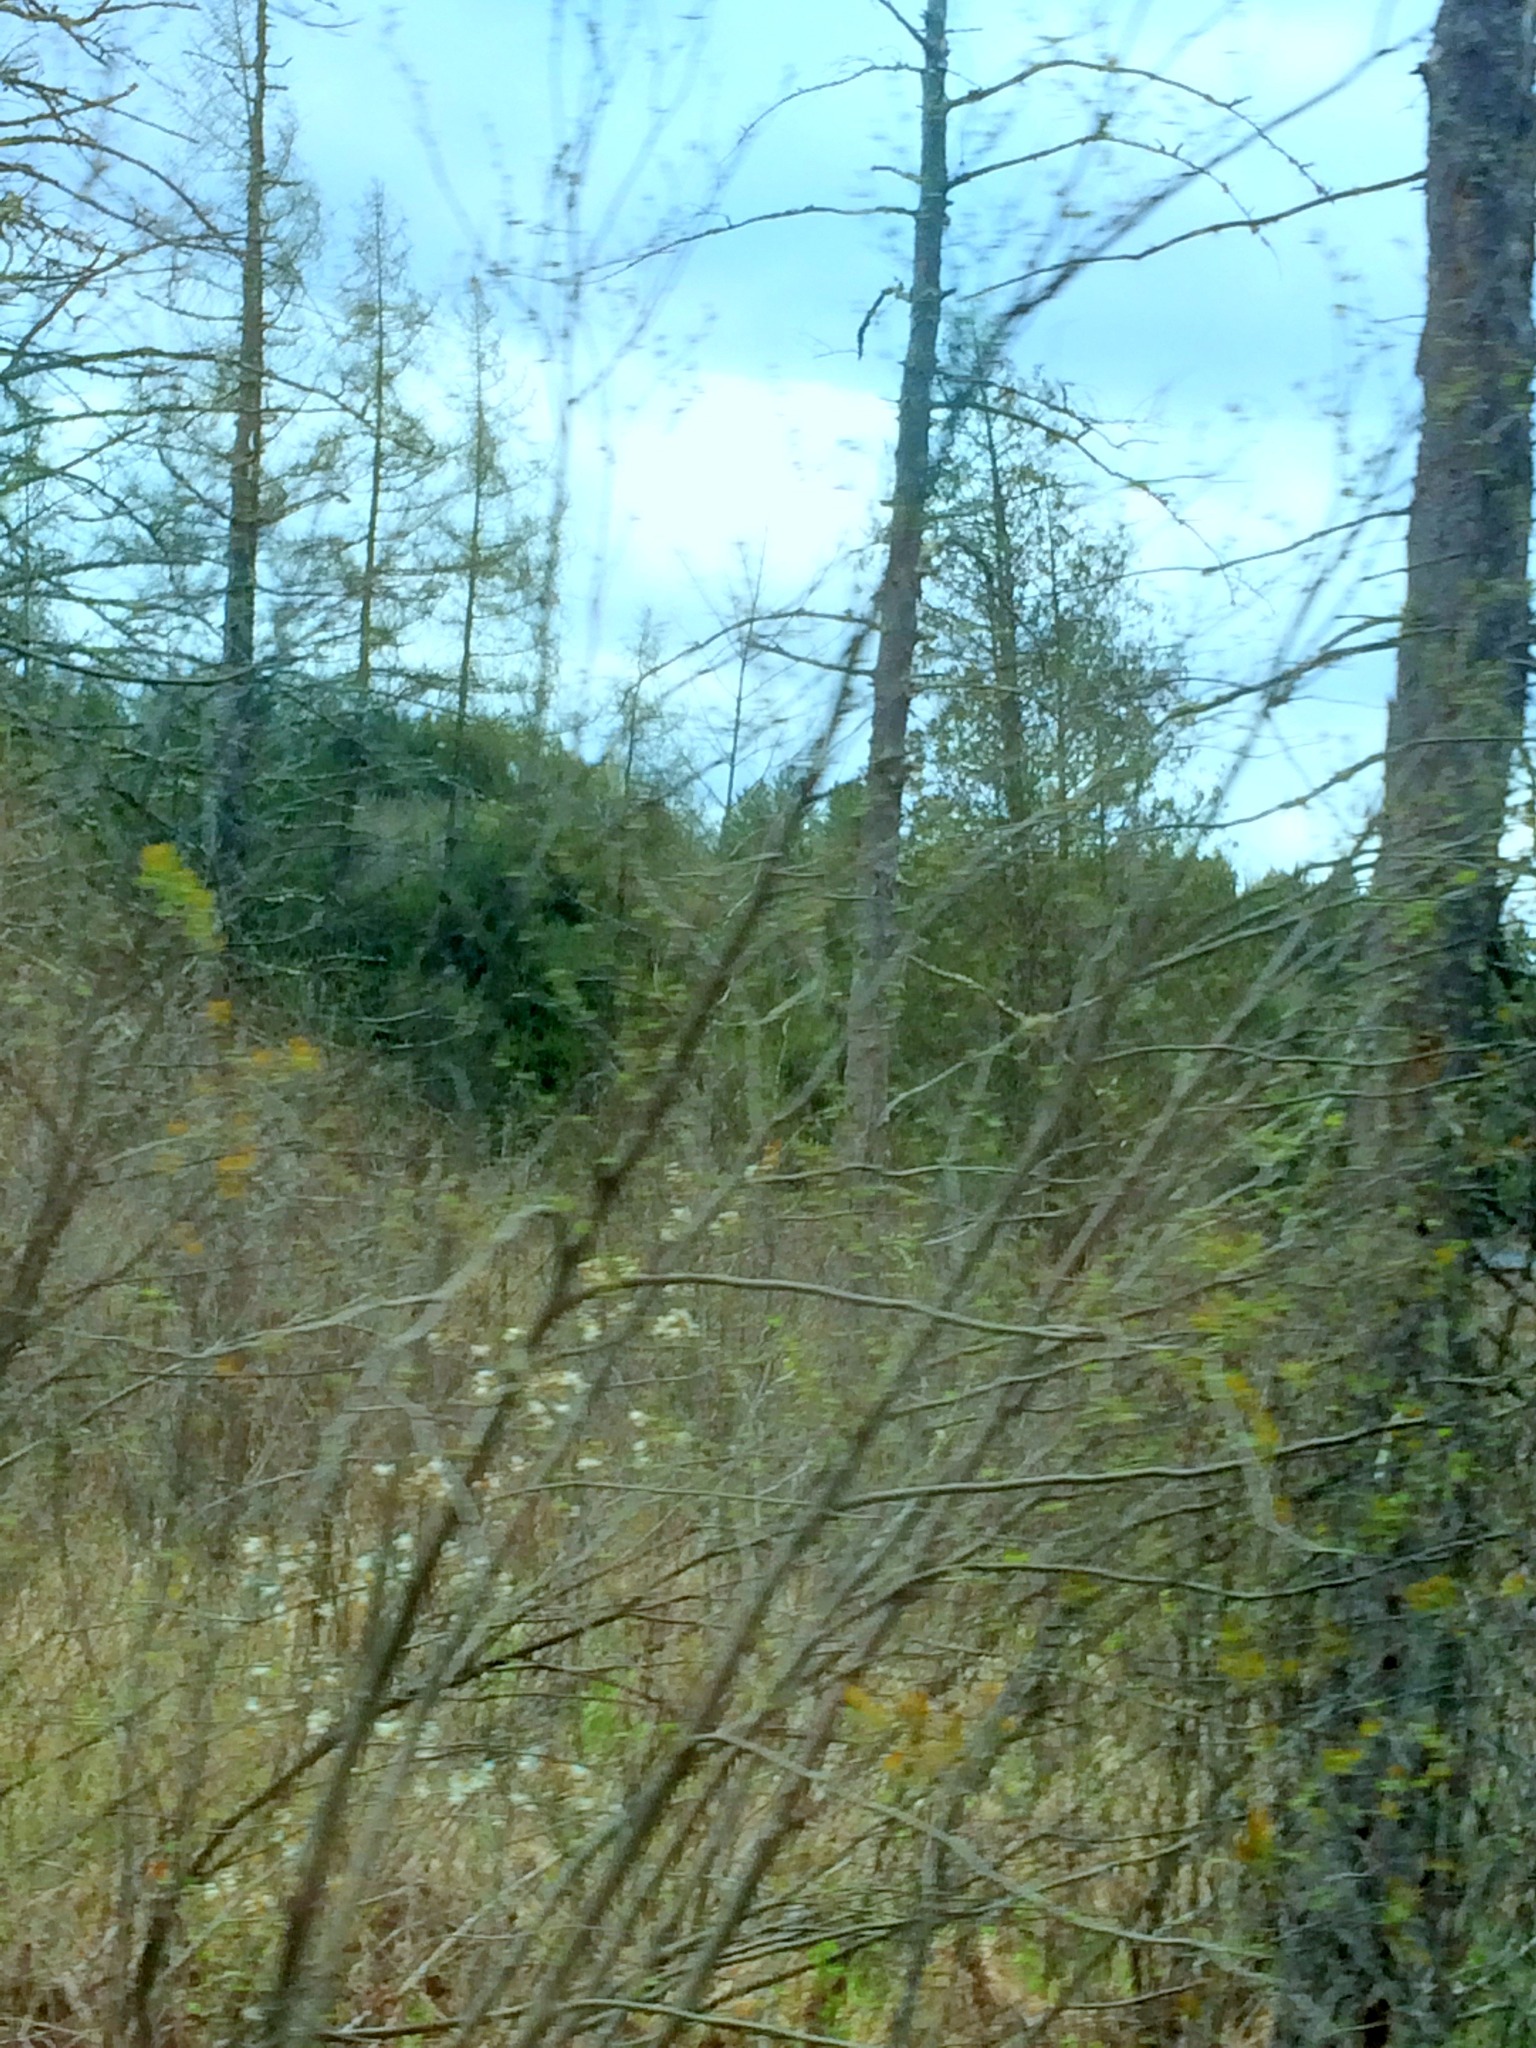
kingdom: Plantae
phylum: Tracheophyta
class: Pinopsida
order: Pinales
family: Pinaceae
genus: Larix
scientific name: Larix laricina
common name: American larch
